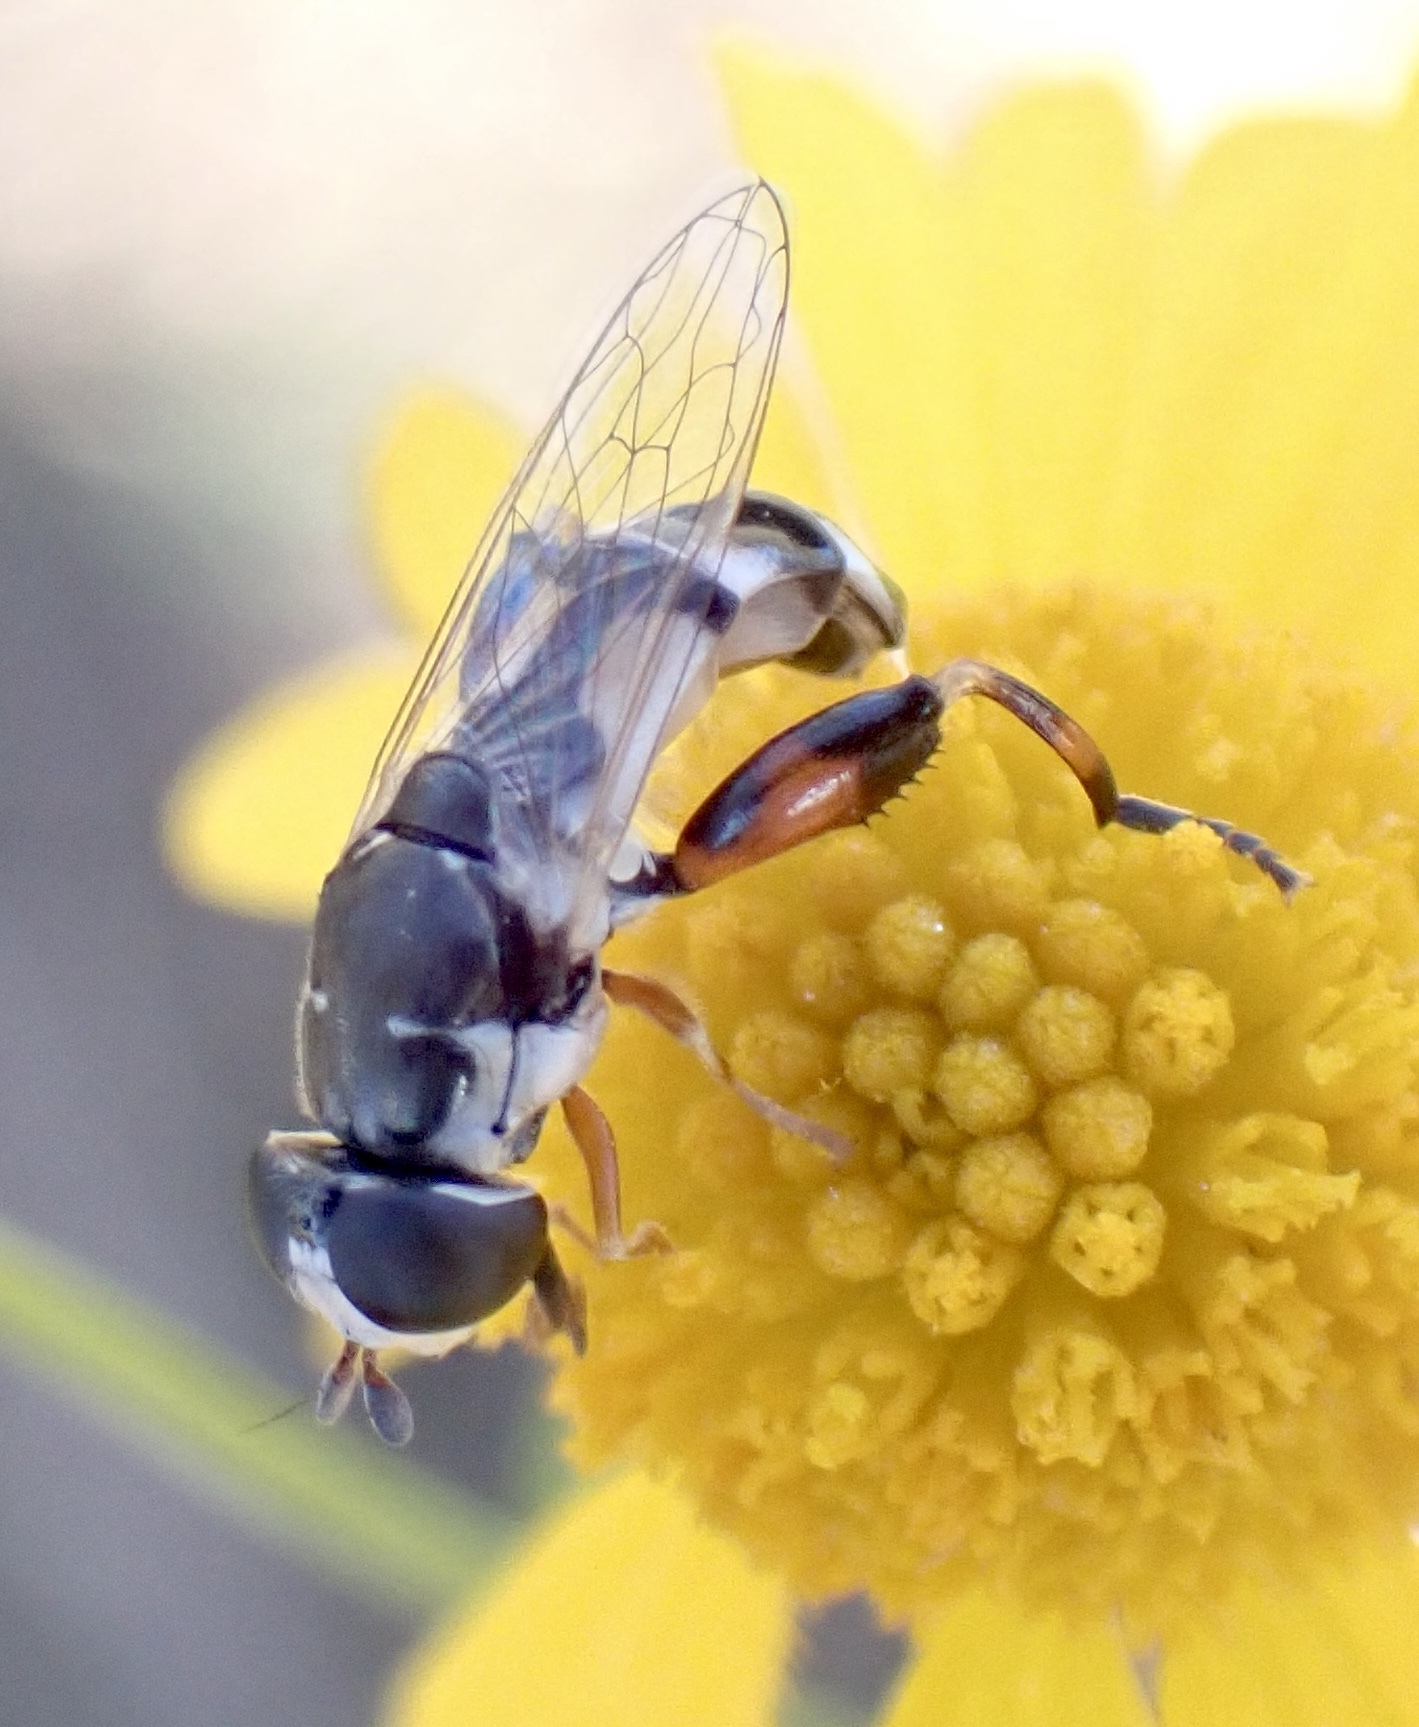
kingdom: Animalia
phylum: Arthropoda
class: Insecta
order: Diptera
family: Syrphidae
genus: Syritta
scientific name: Syritta flaviventris
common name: Syrphid fly
